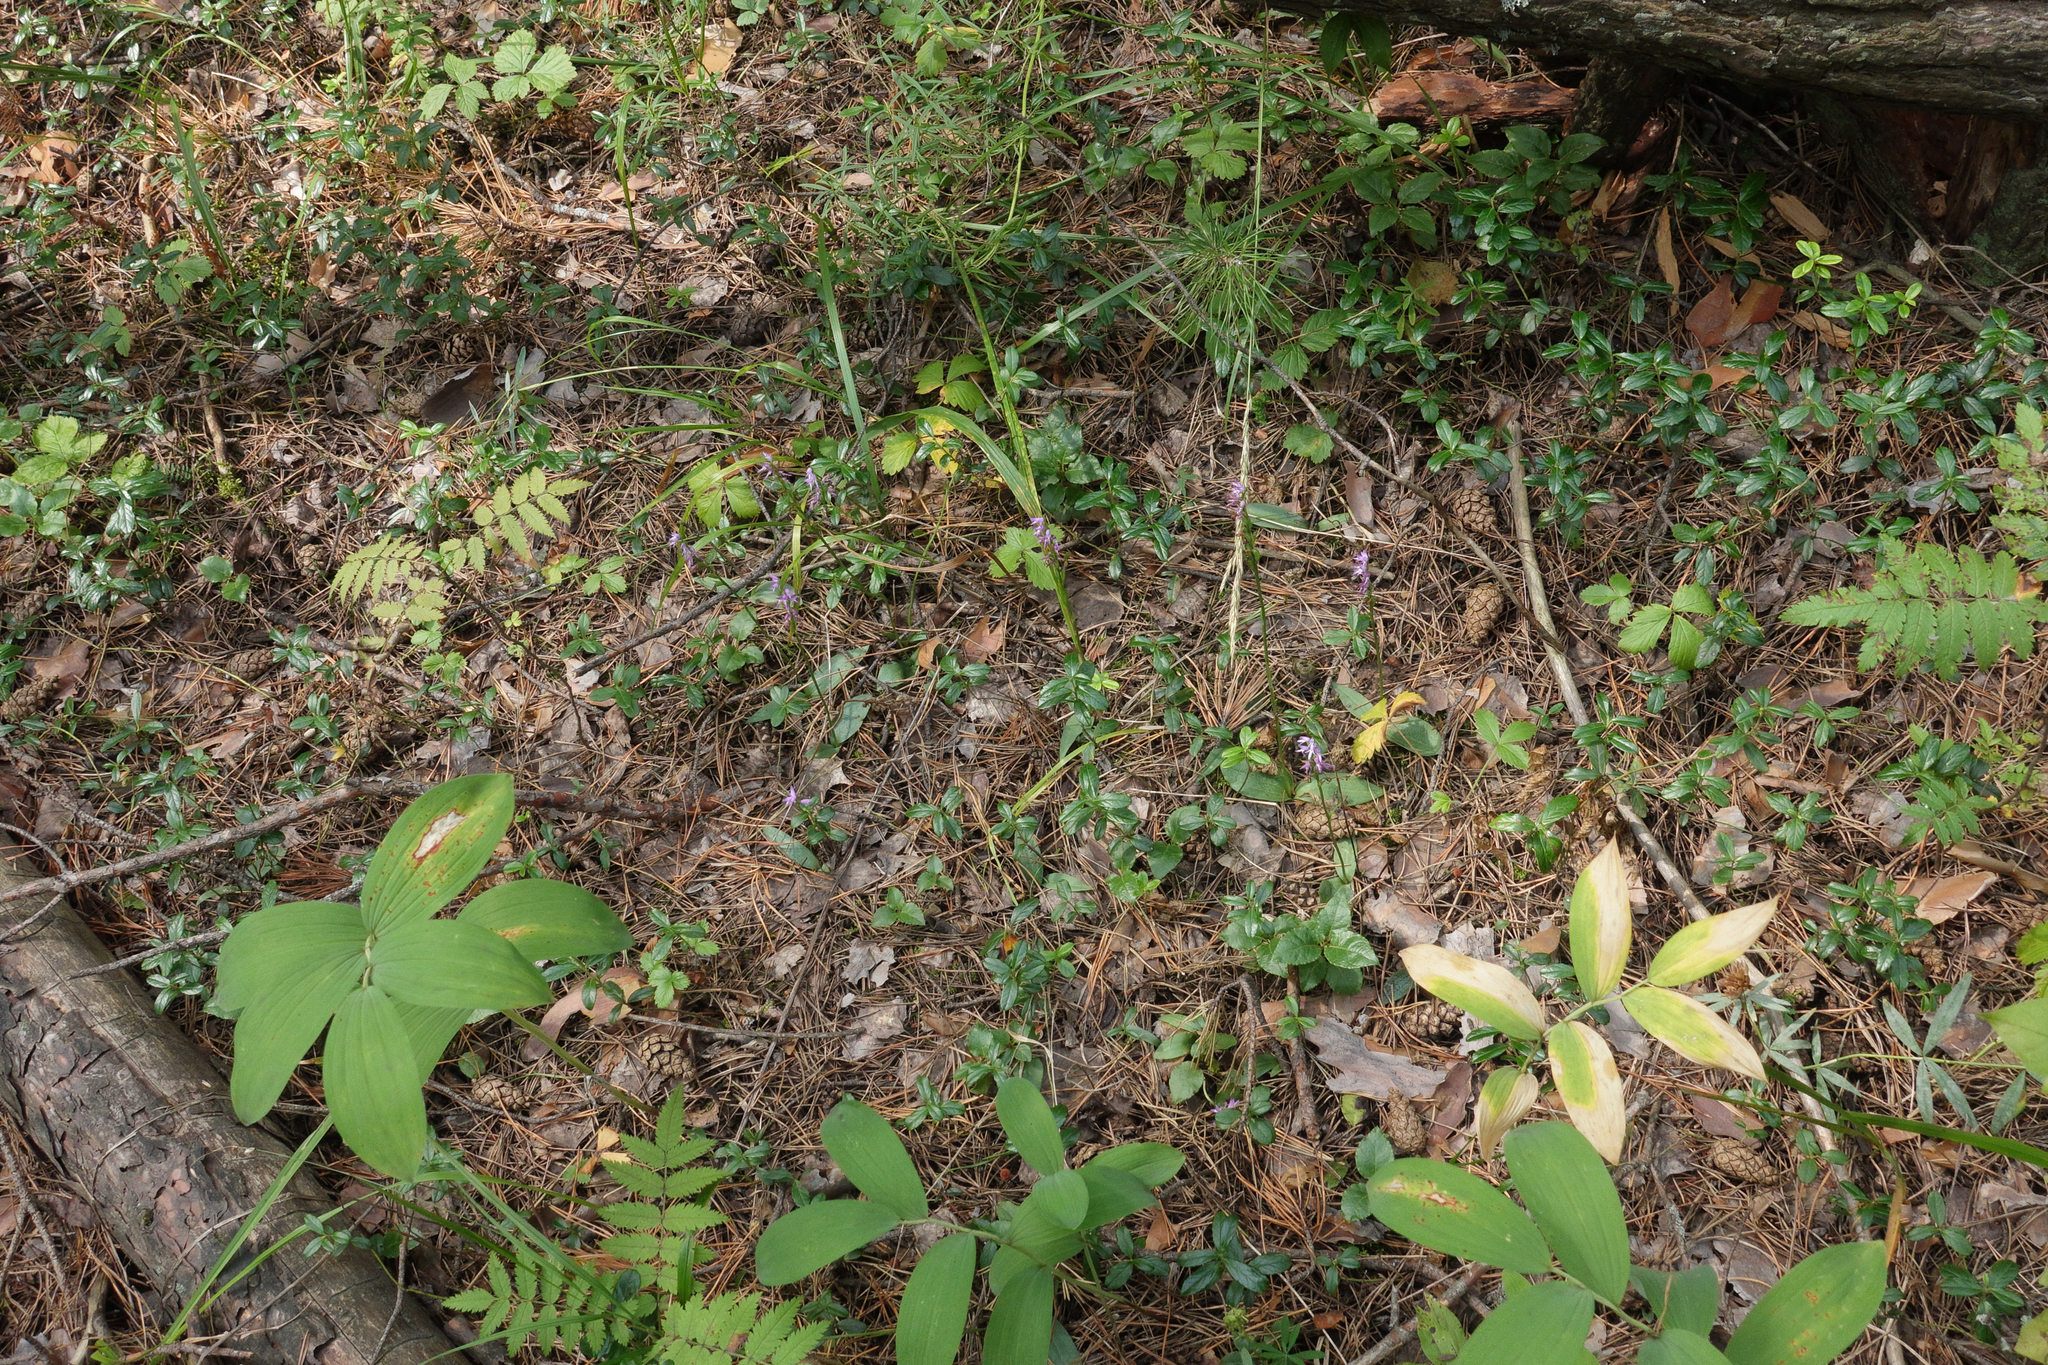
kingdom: Plantae
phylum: Tracheophyta
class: Liliopsida
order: Asparagales
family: Orchidaceae
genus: Hemipilia
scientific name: Hemipilia cucullata
